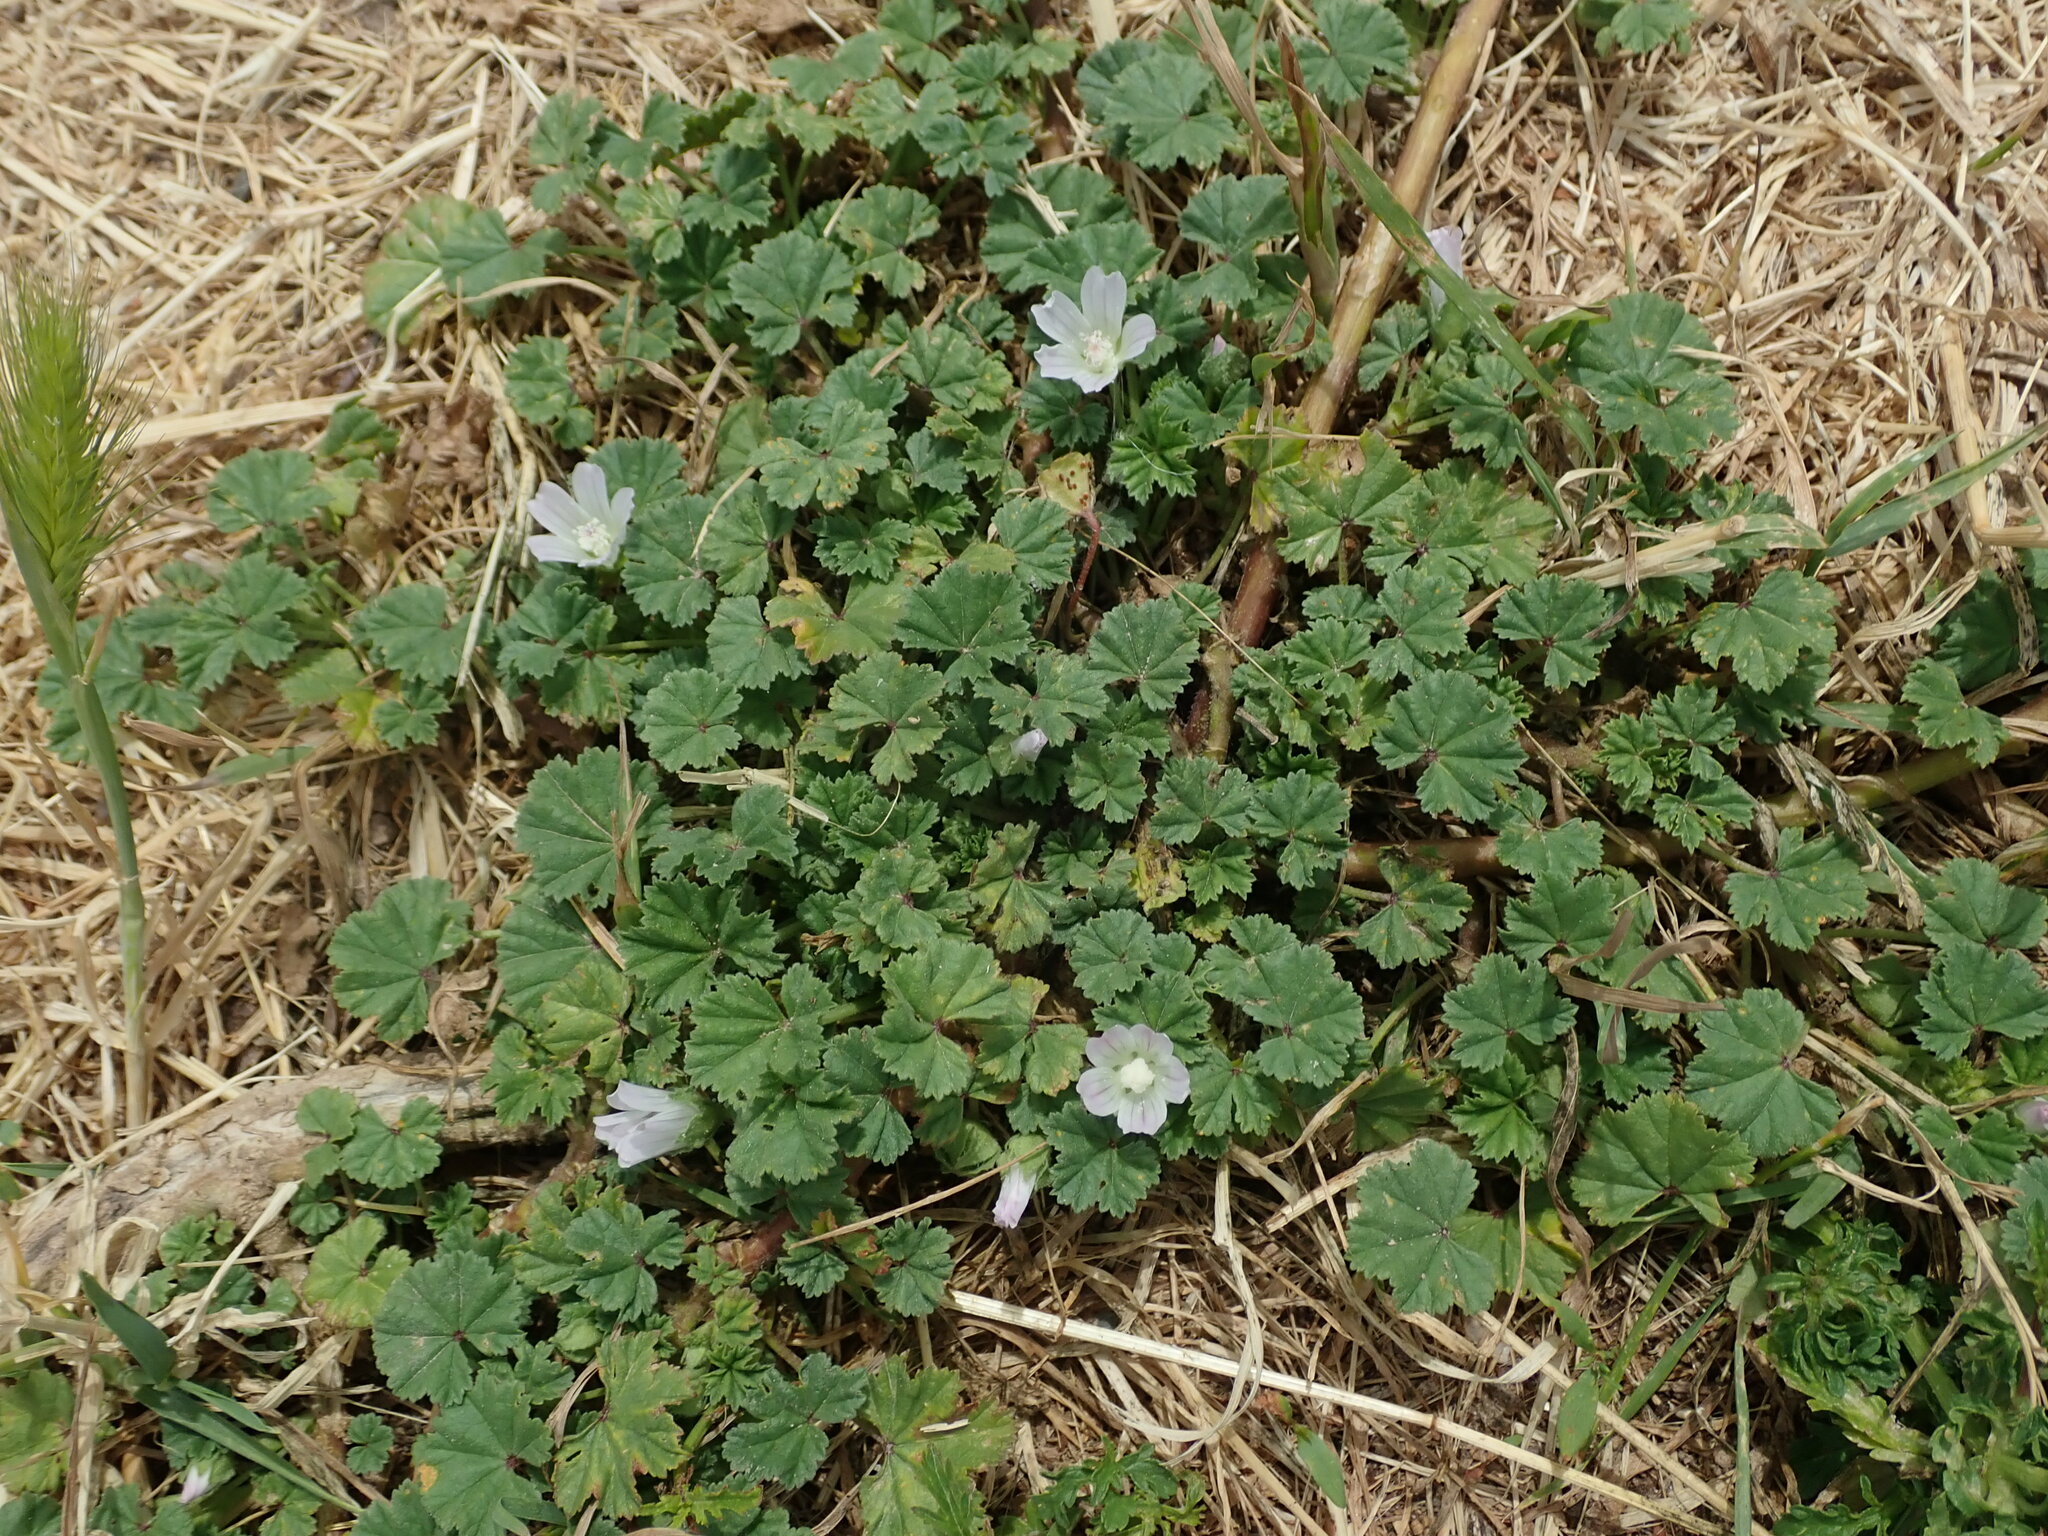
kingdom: Plantae
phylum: Tracheophyta
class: Magnoliopsida
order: Malvales
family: Malvaceae
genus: Malva
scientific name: Malva neglecta
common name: Common mallow
